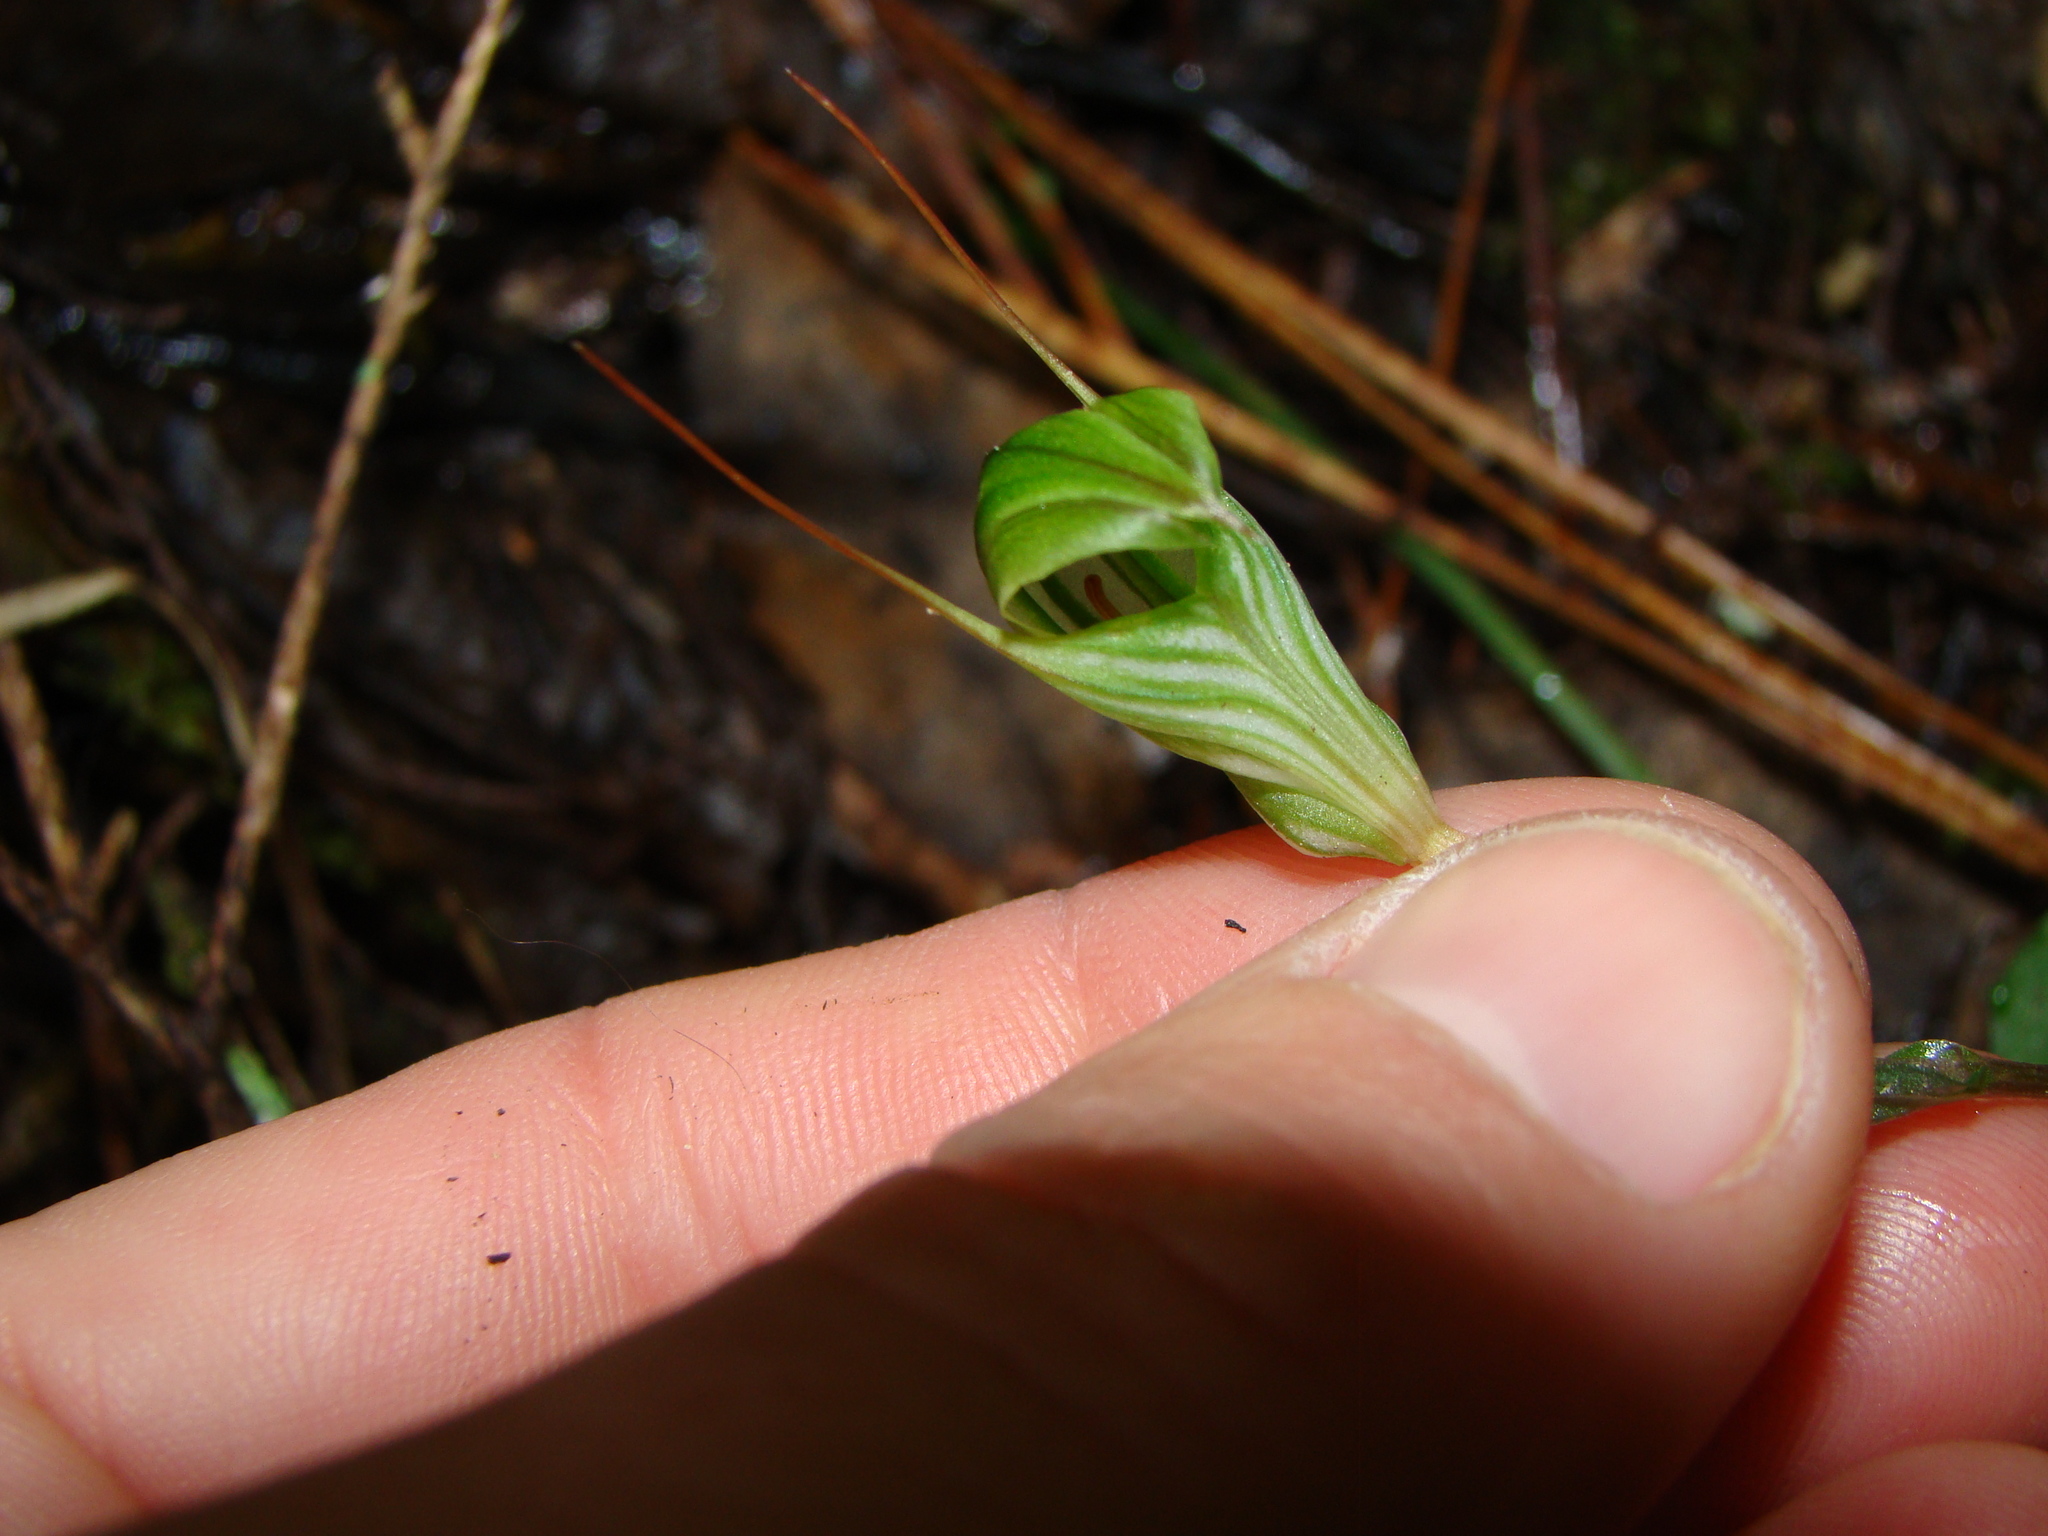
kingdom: Plantae
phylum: Tracheophyta
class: Liliopsida
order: Asparagales
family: Orchidaceae
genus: Pterostylis
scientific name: Pterostylis alobula
